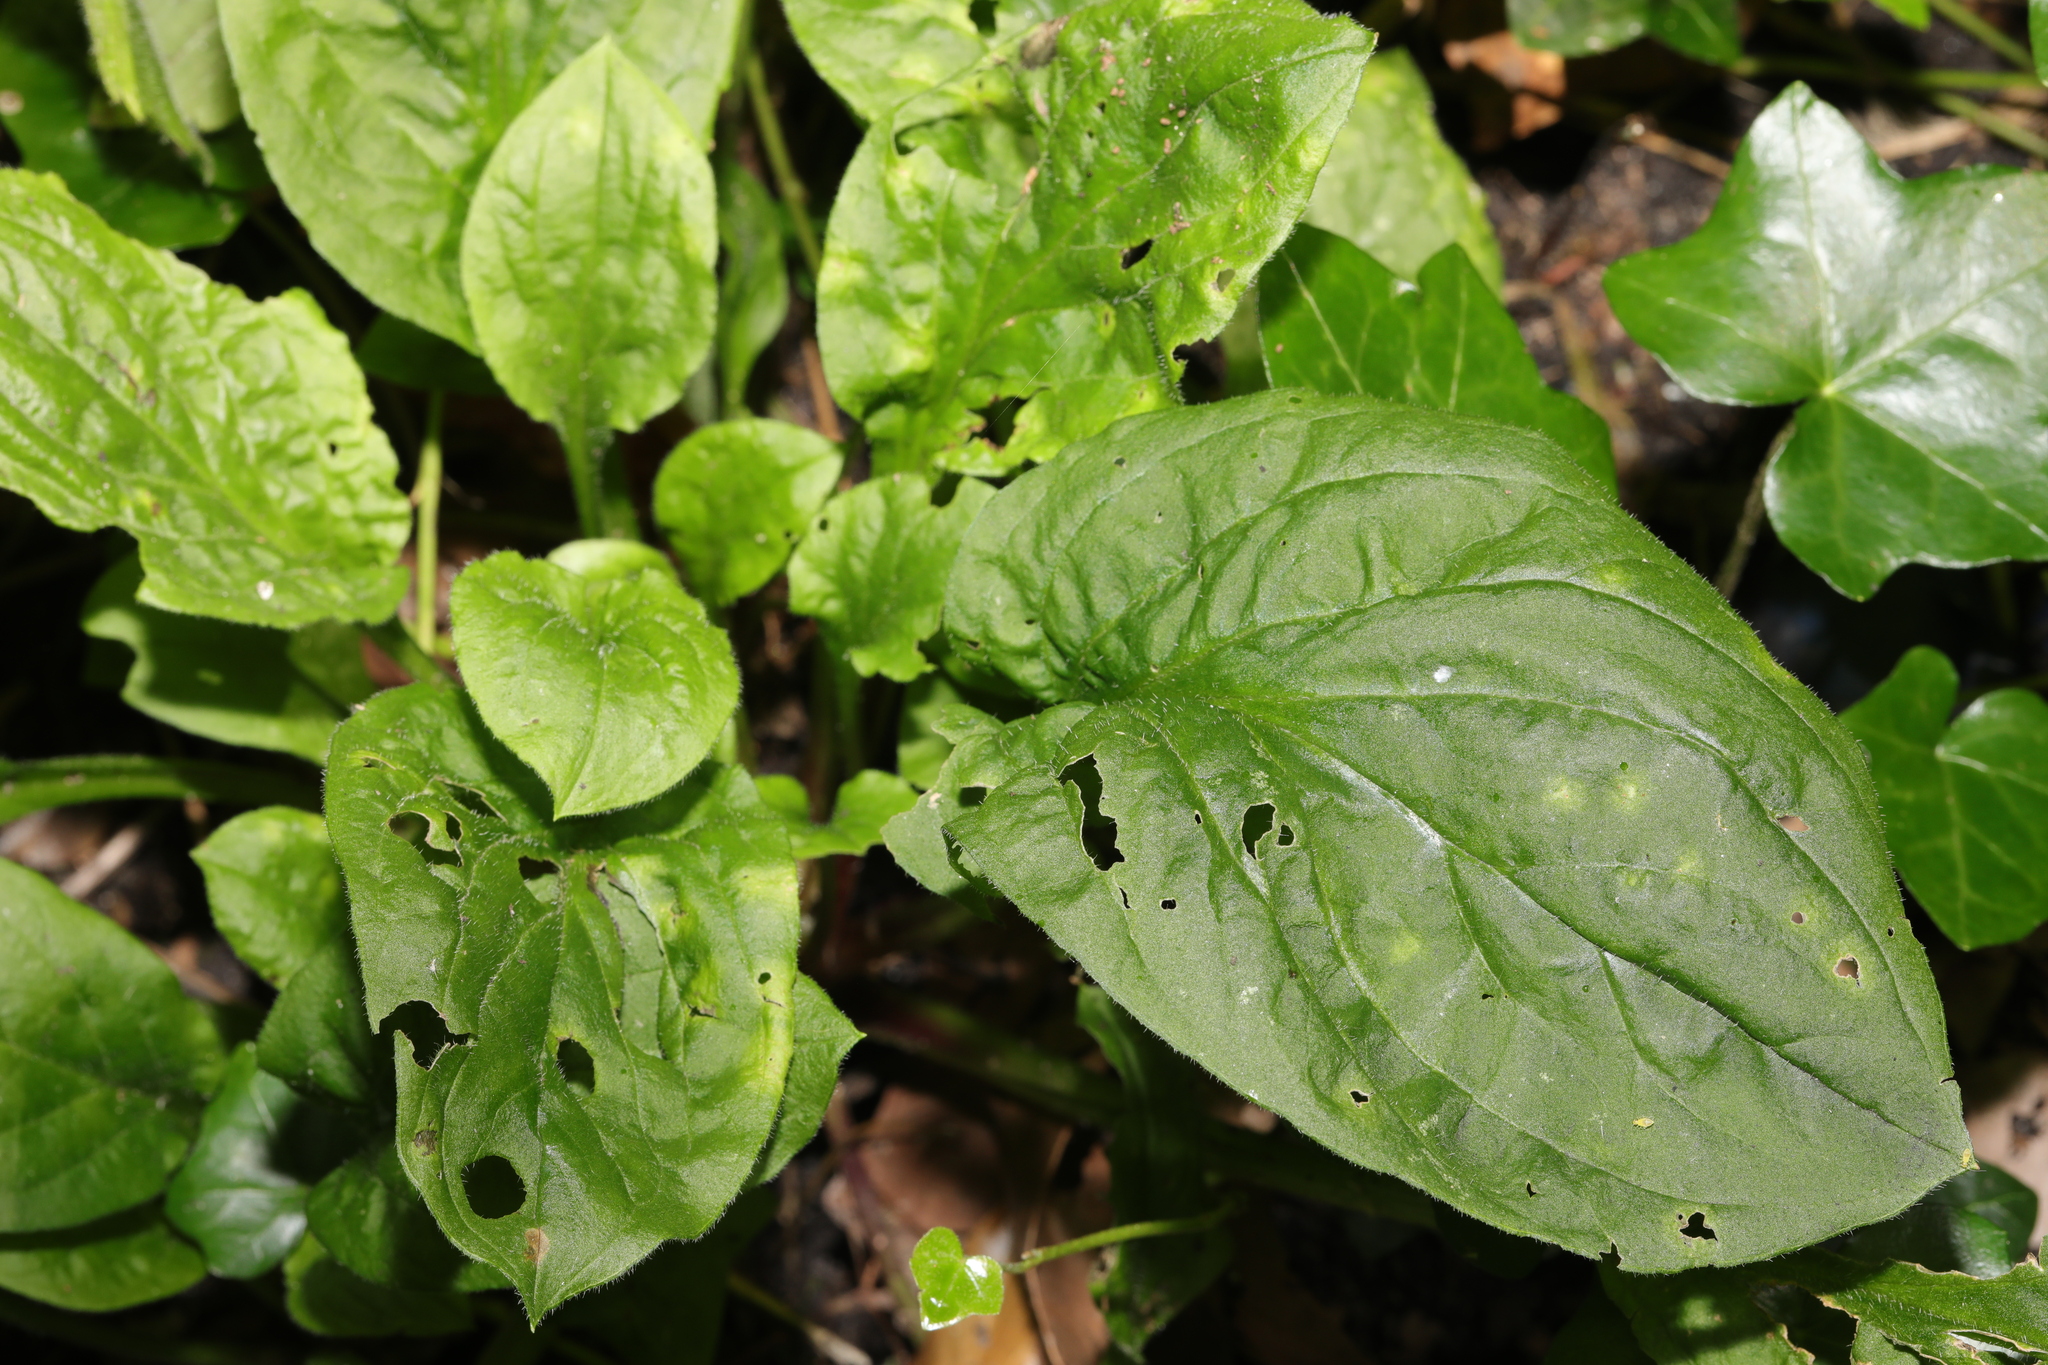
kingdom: Plantae
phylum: Tracheophyta
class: Magnoliopsida
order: Caryophyllales
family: Caryophyllaceae
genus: Silene
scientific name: Silene dioica
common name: Red campion
